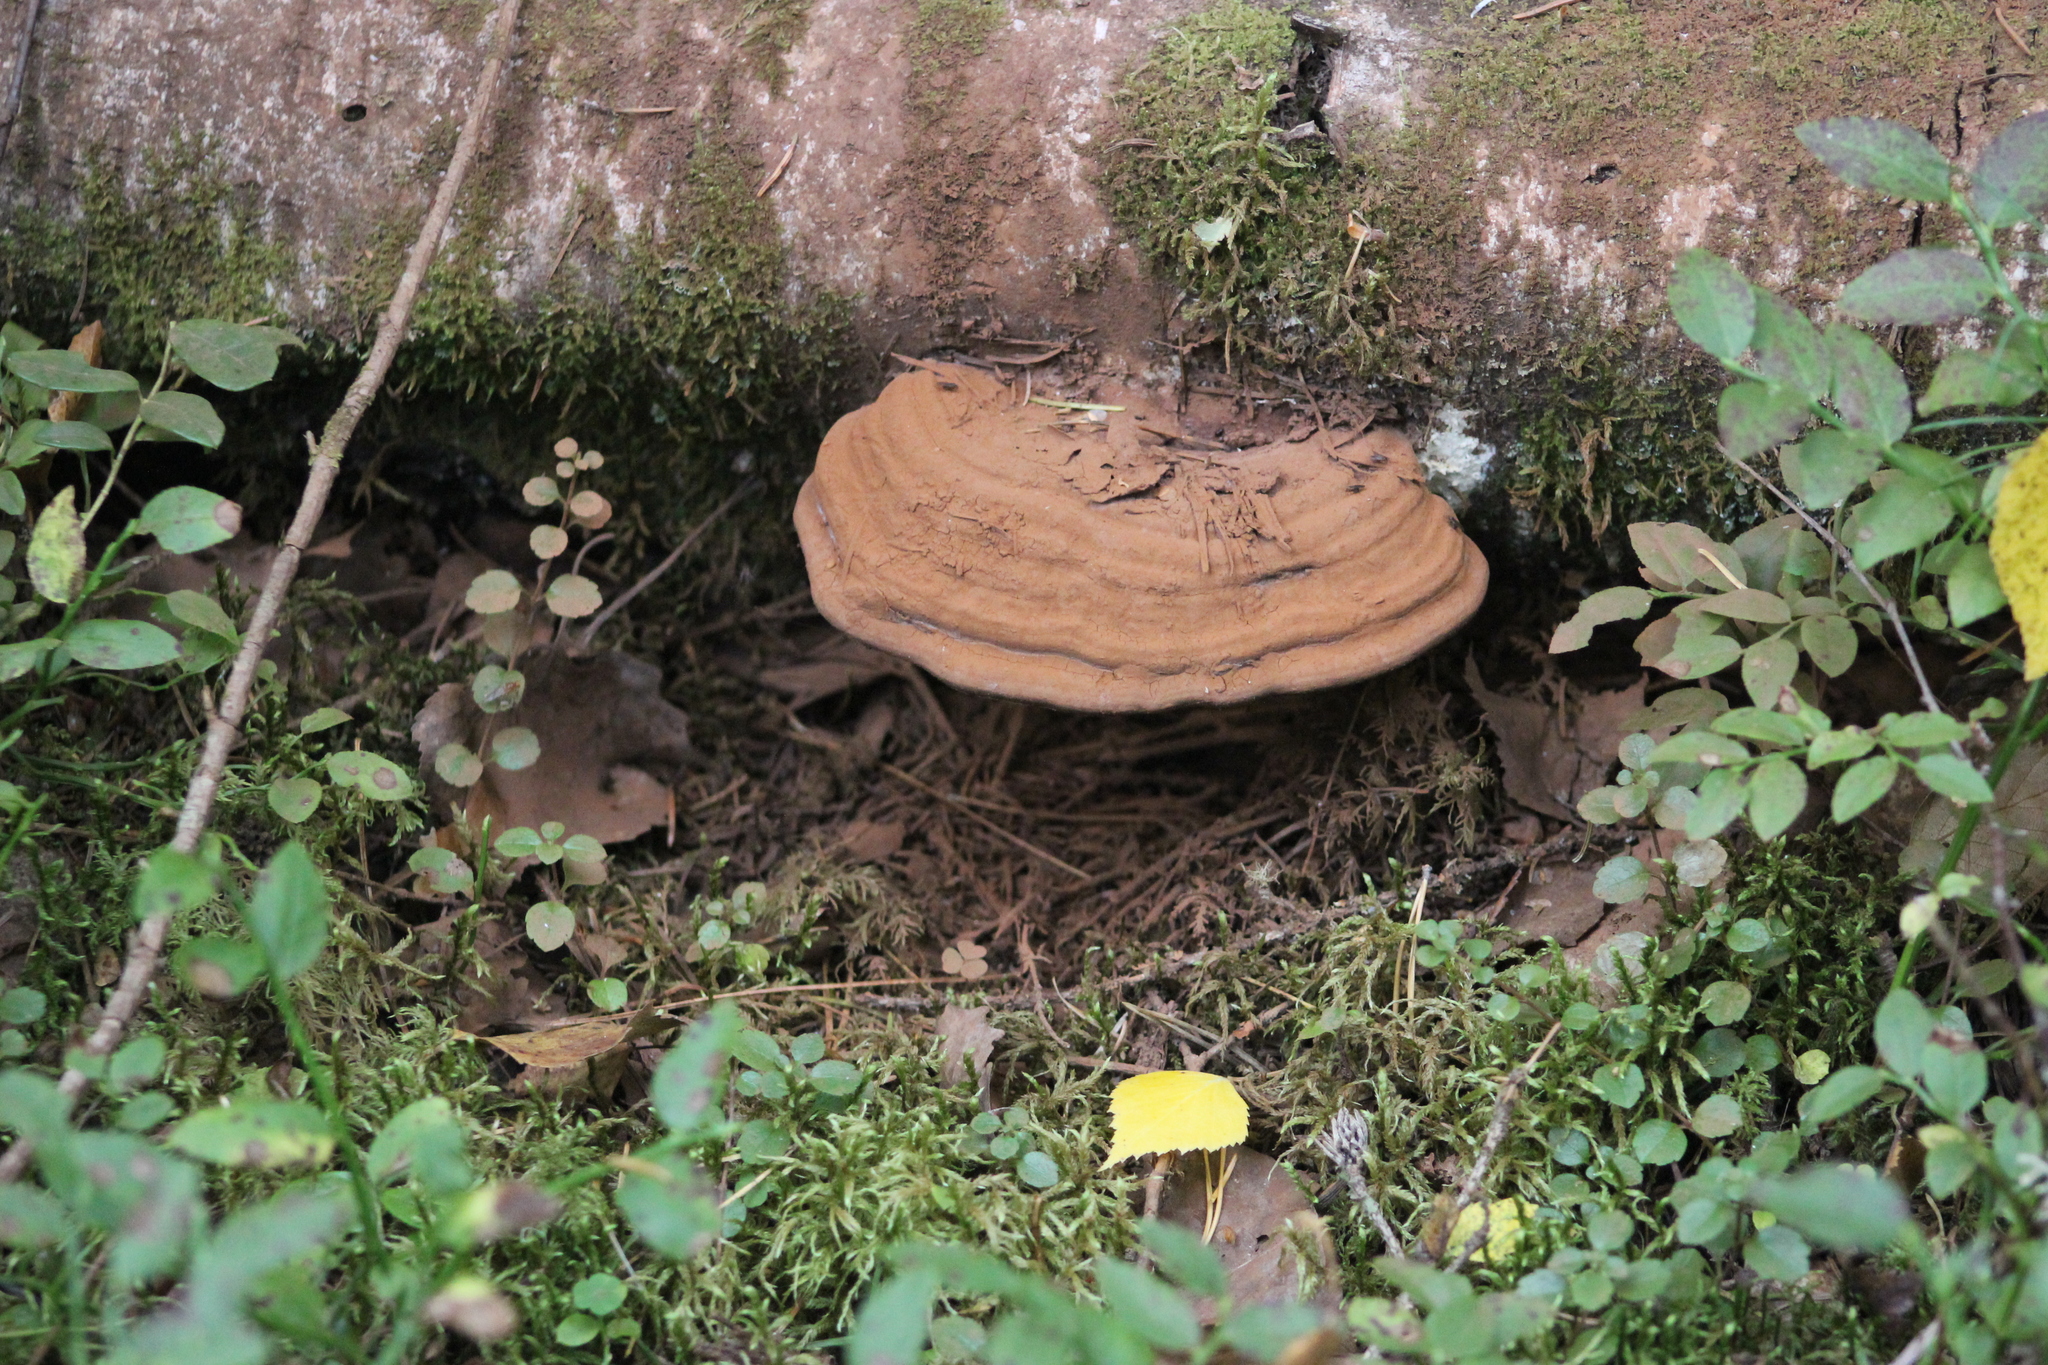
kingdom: Fungi
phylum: Basidiomycota
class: Agaricomycetes
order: Polyporales
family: Polyporaceae
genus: Ganoderma
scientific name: Ganoderma applanatum
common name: Artist's bracket
